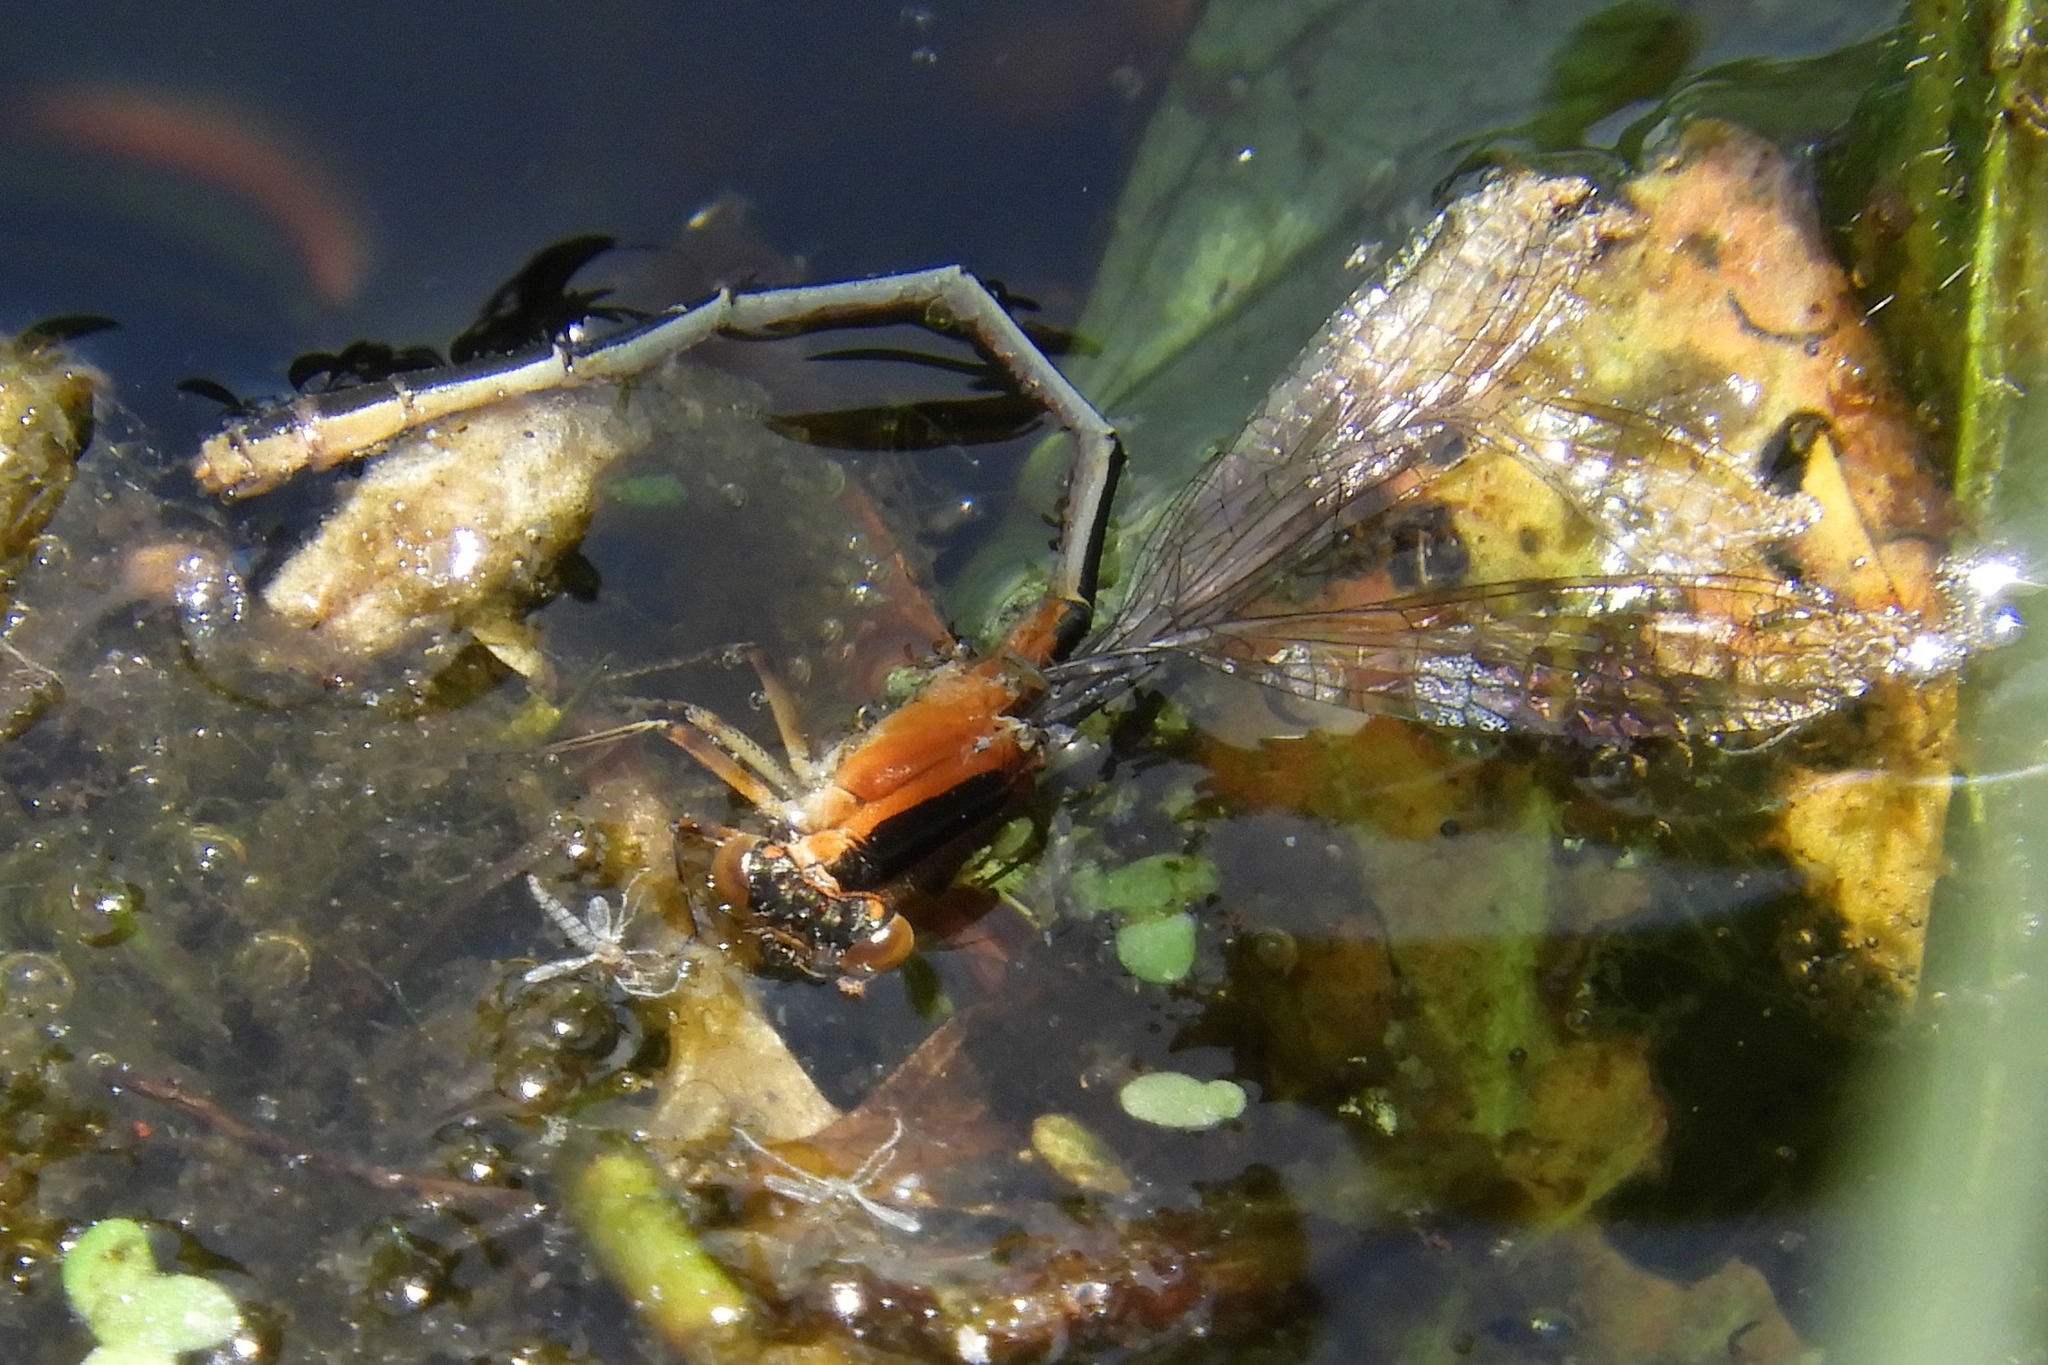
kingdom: Animalia
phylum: Arthropoda
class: Insecta
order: Odonata
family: Coenagrionidae
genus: Ischnura
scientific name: Ischnura ramburii
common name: Rambur's forktail
